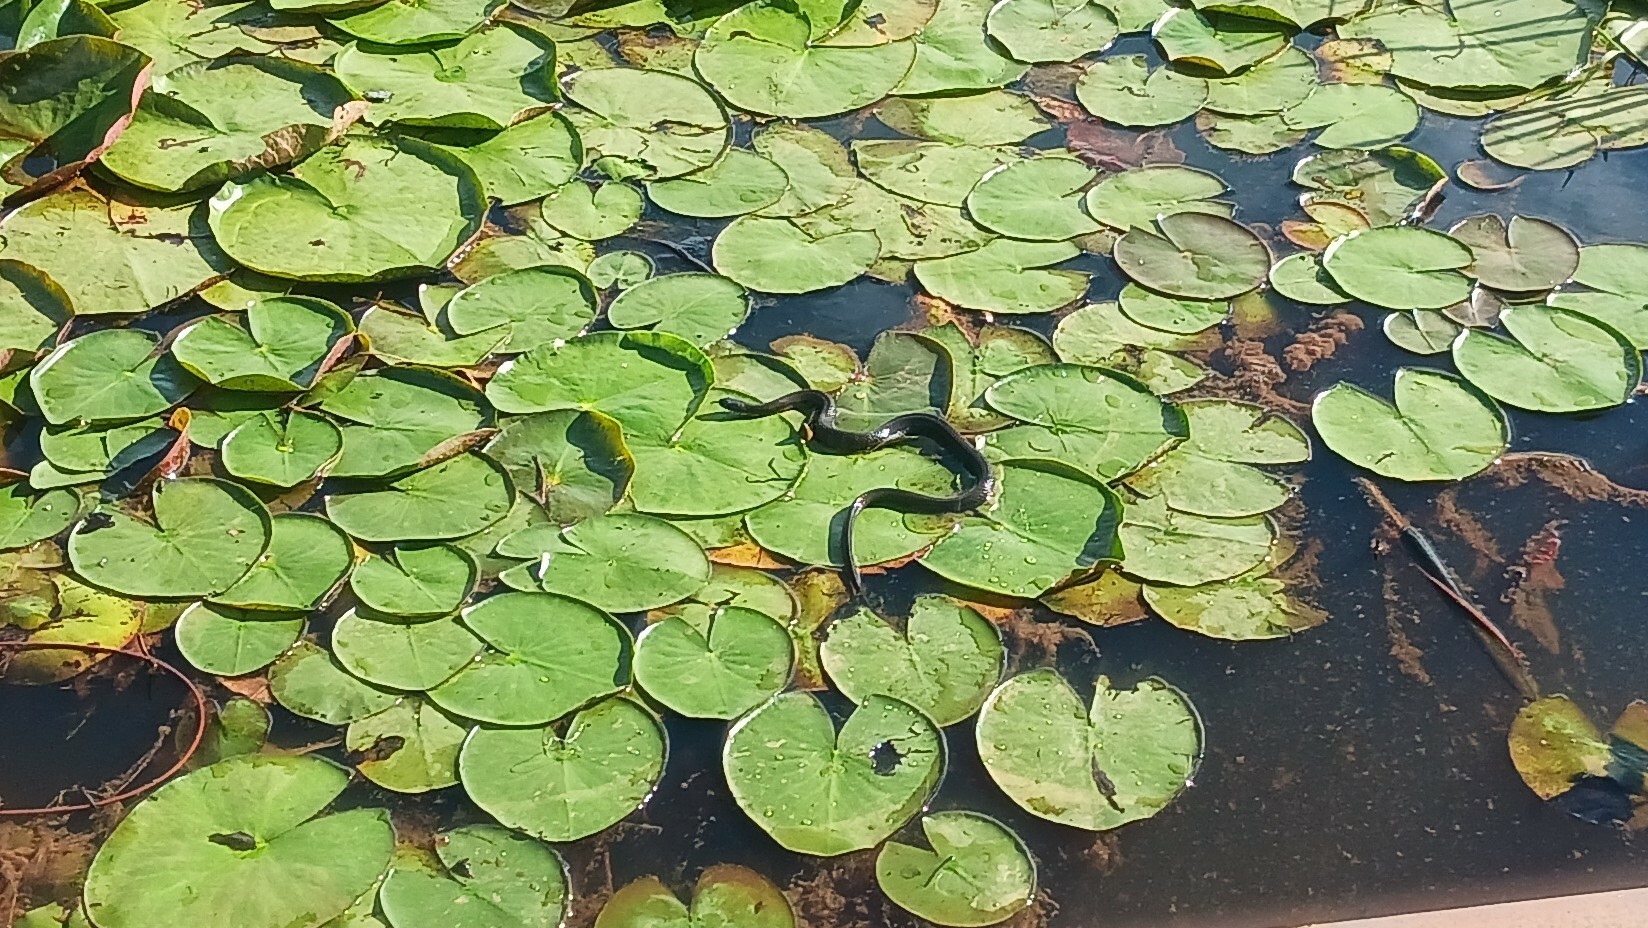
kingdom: Animalia
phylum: Chordata
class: Squamata
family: Colubridae
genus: Nerodia
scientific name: Nerodia sipedon
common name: Northern water snake
